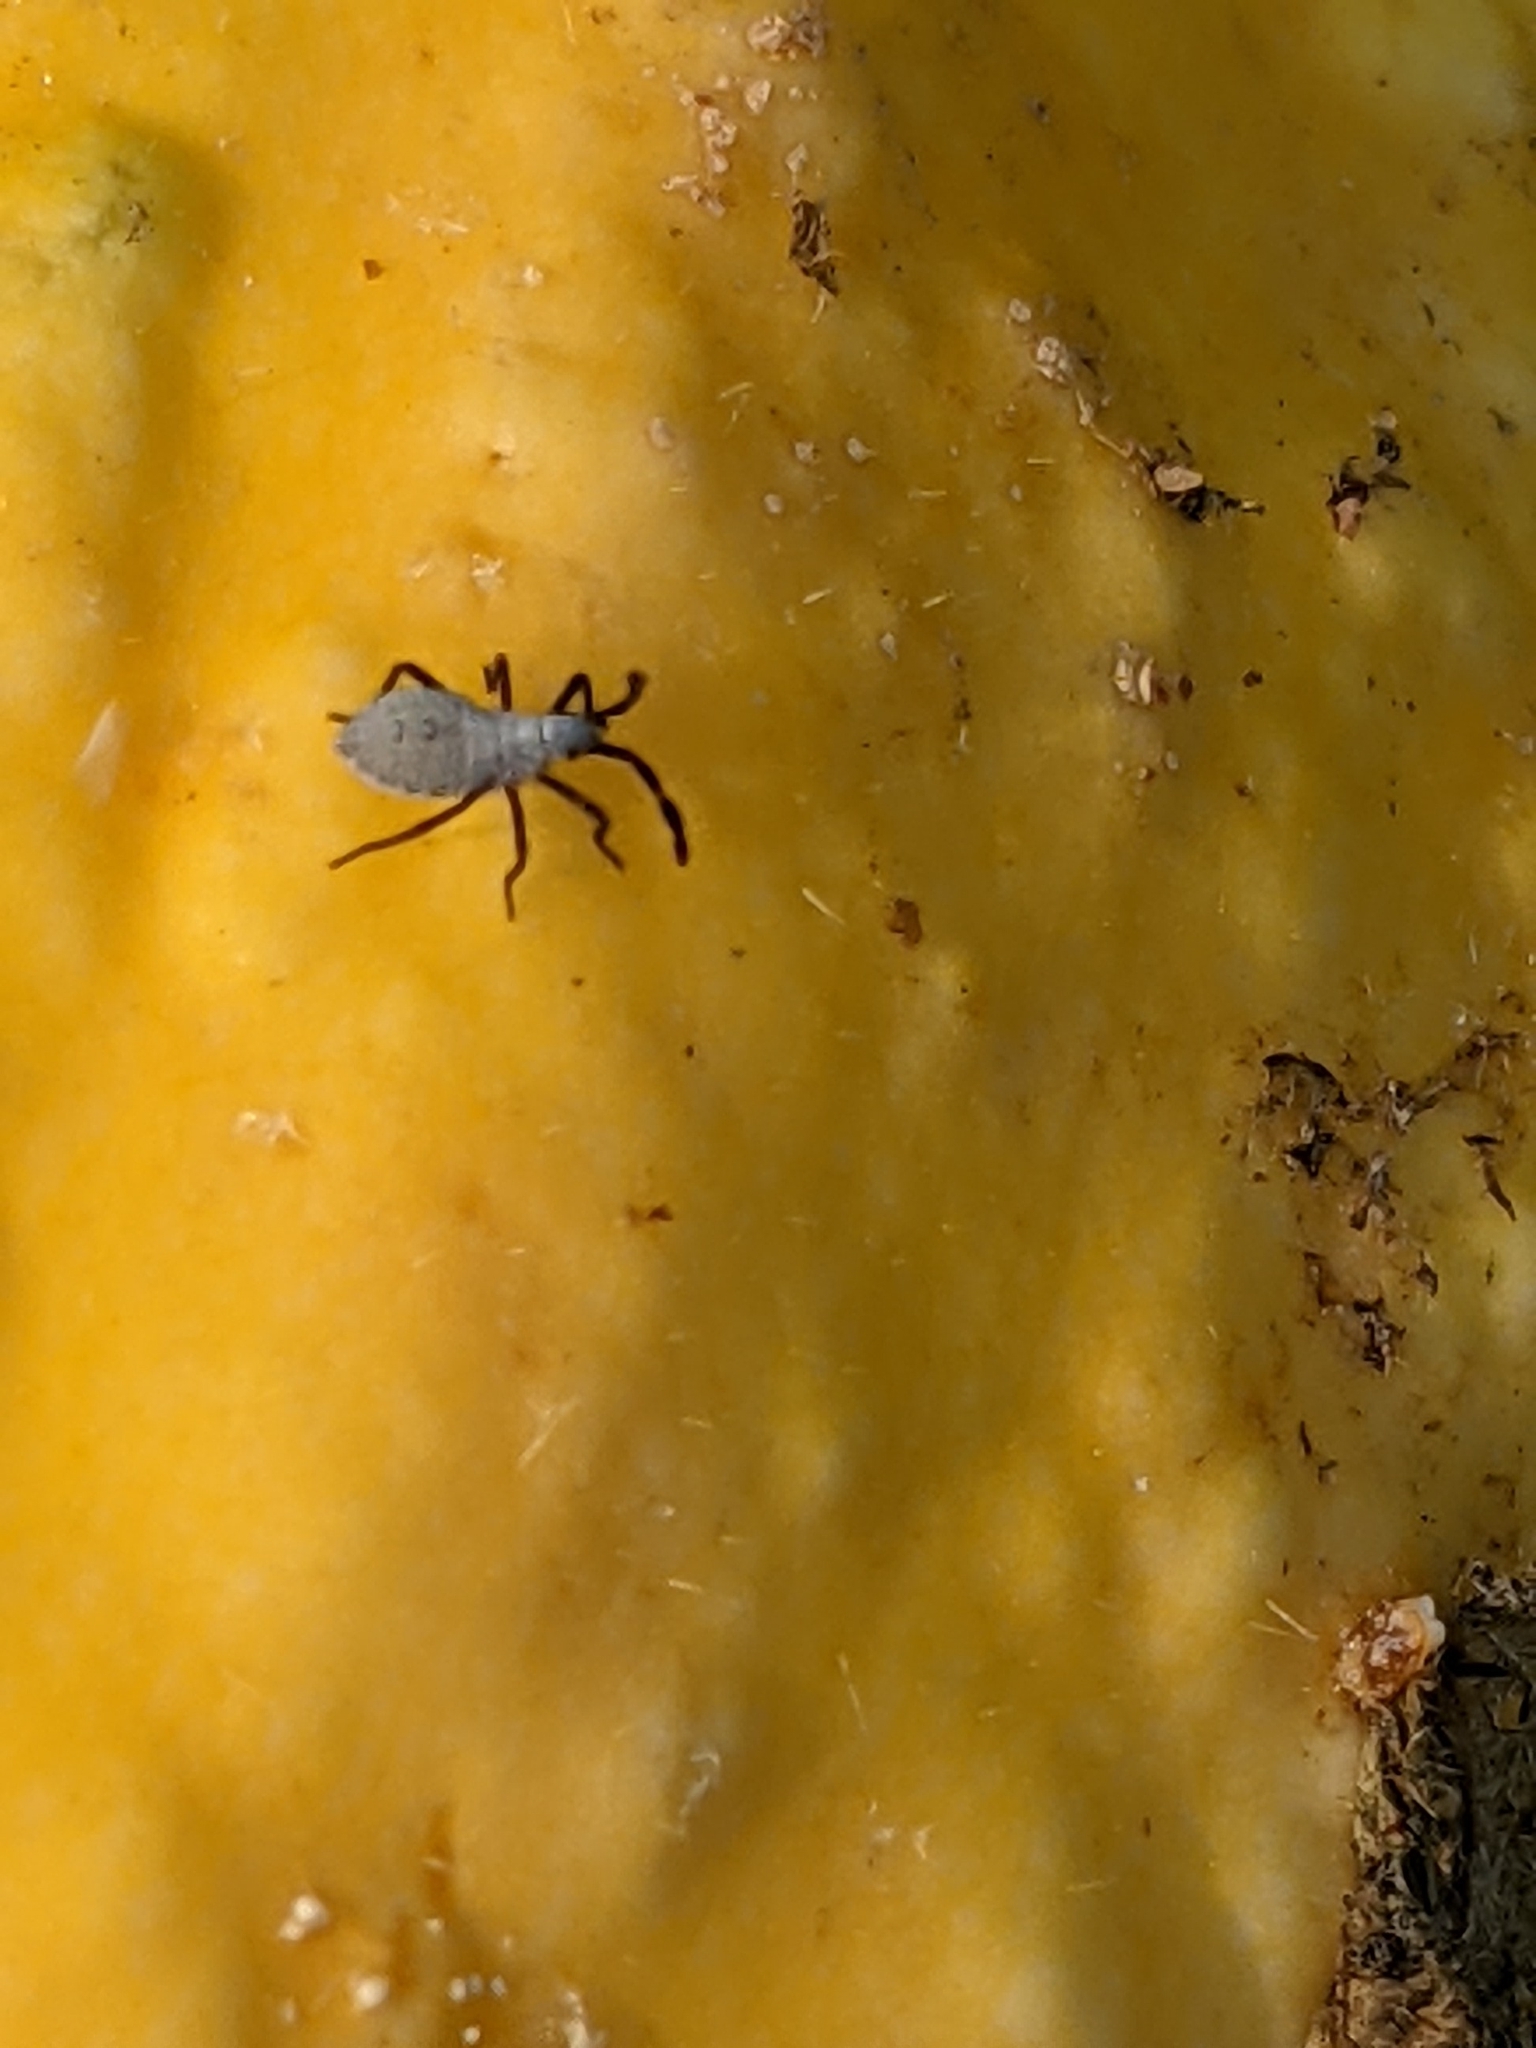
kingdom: Animalia
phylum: Arthropoda
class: Insecta
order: Hemiptera
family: Coreidae
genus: Anasa
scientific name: Anasa tristis
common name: Squash bug
